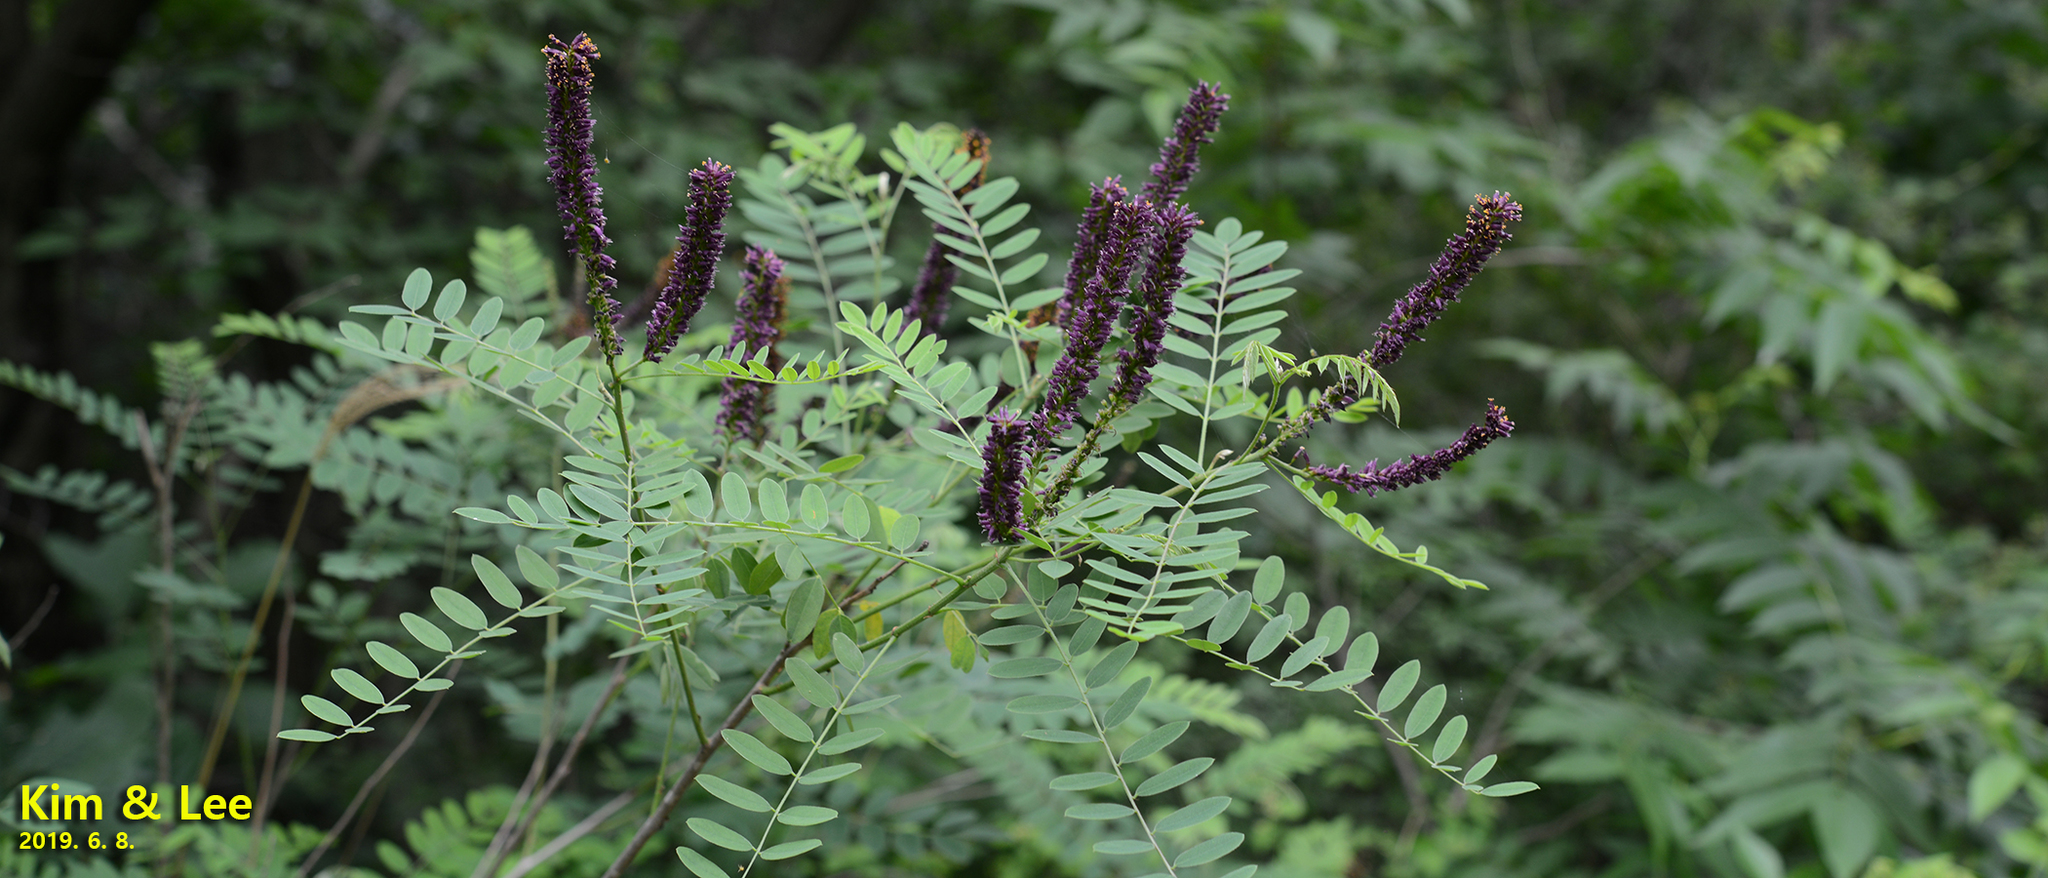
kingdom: Plantae
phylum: Tracheophyta
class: Magnoliopsida
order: Fabales
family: Fabaceae
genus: Amorpha
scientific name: Amorpha fruticosa
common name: False indigo
